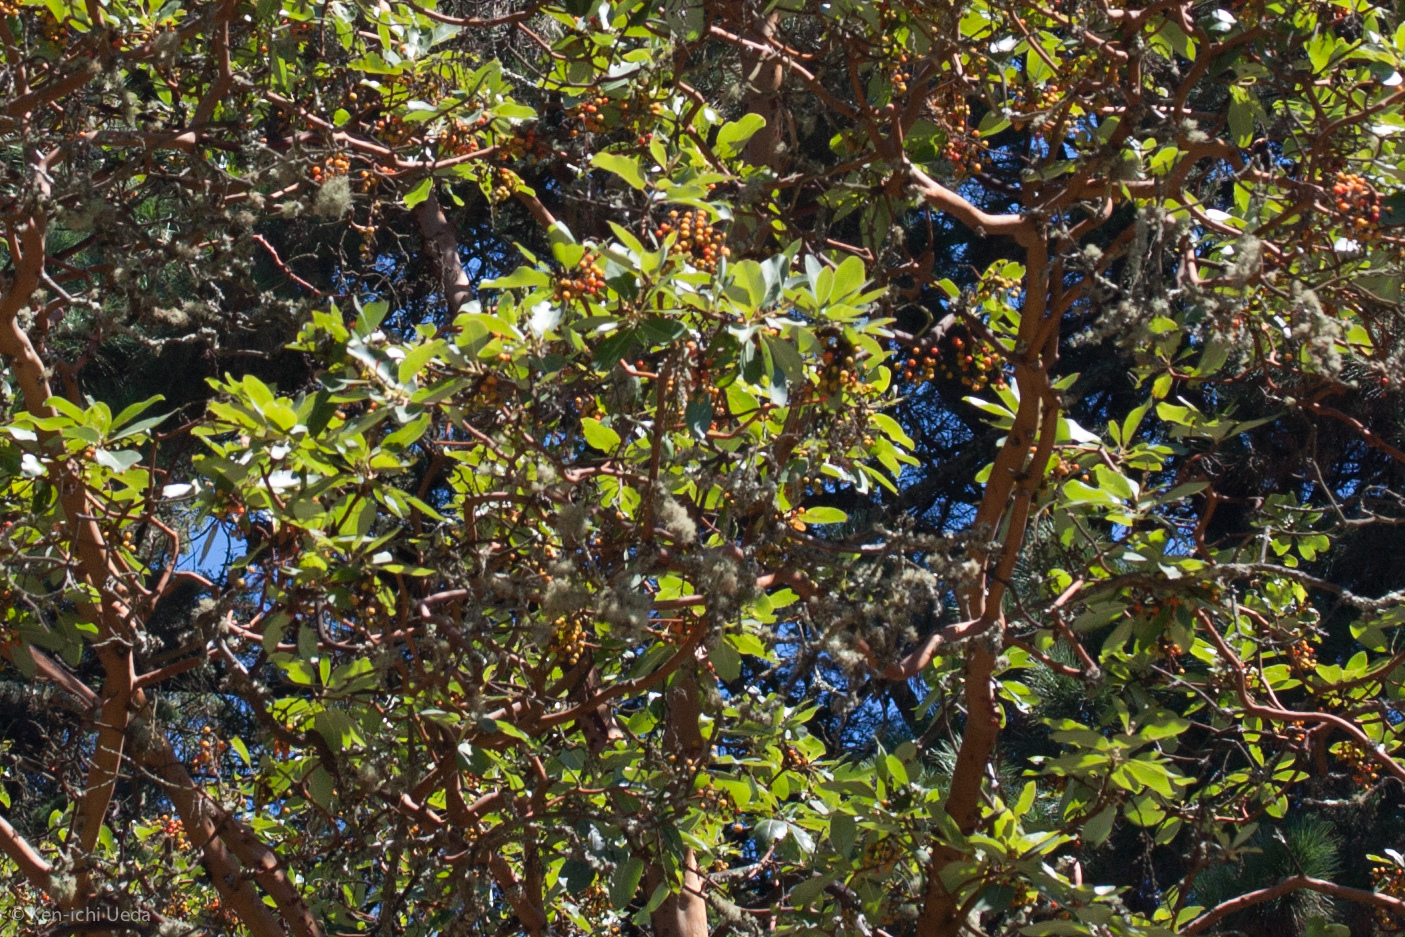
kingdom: Plantae
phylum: Tracheophyta
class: Magnoliopsida
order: Ericales
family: Ericaceae
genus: Arbutus
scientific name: Arbutus menziesii
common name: Pacific madrone
